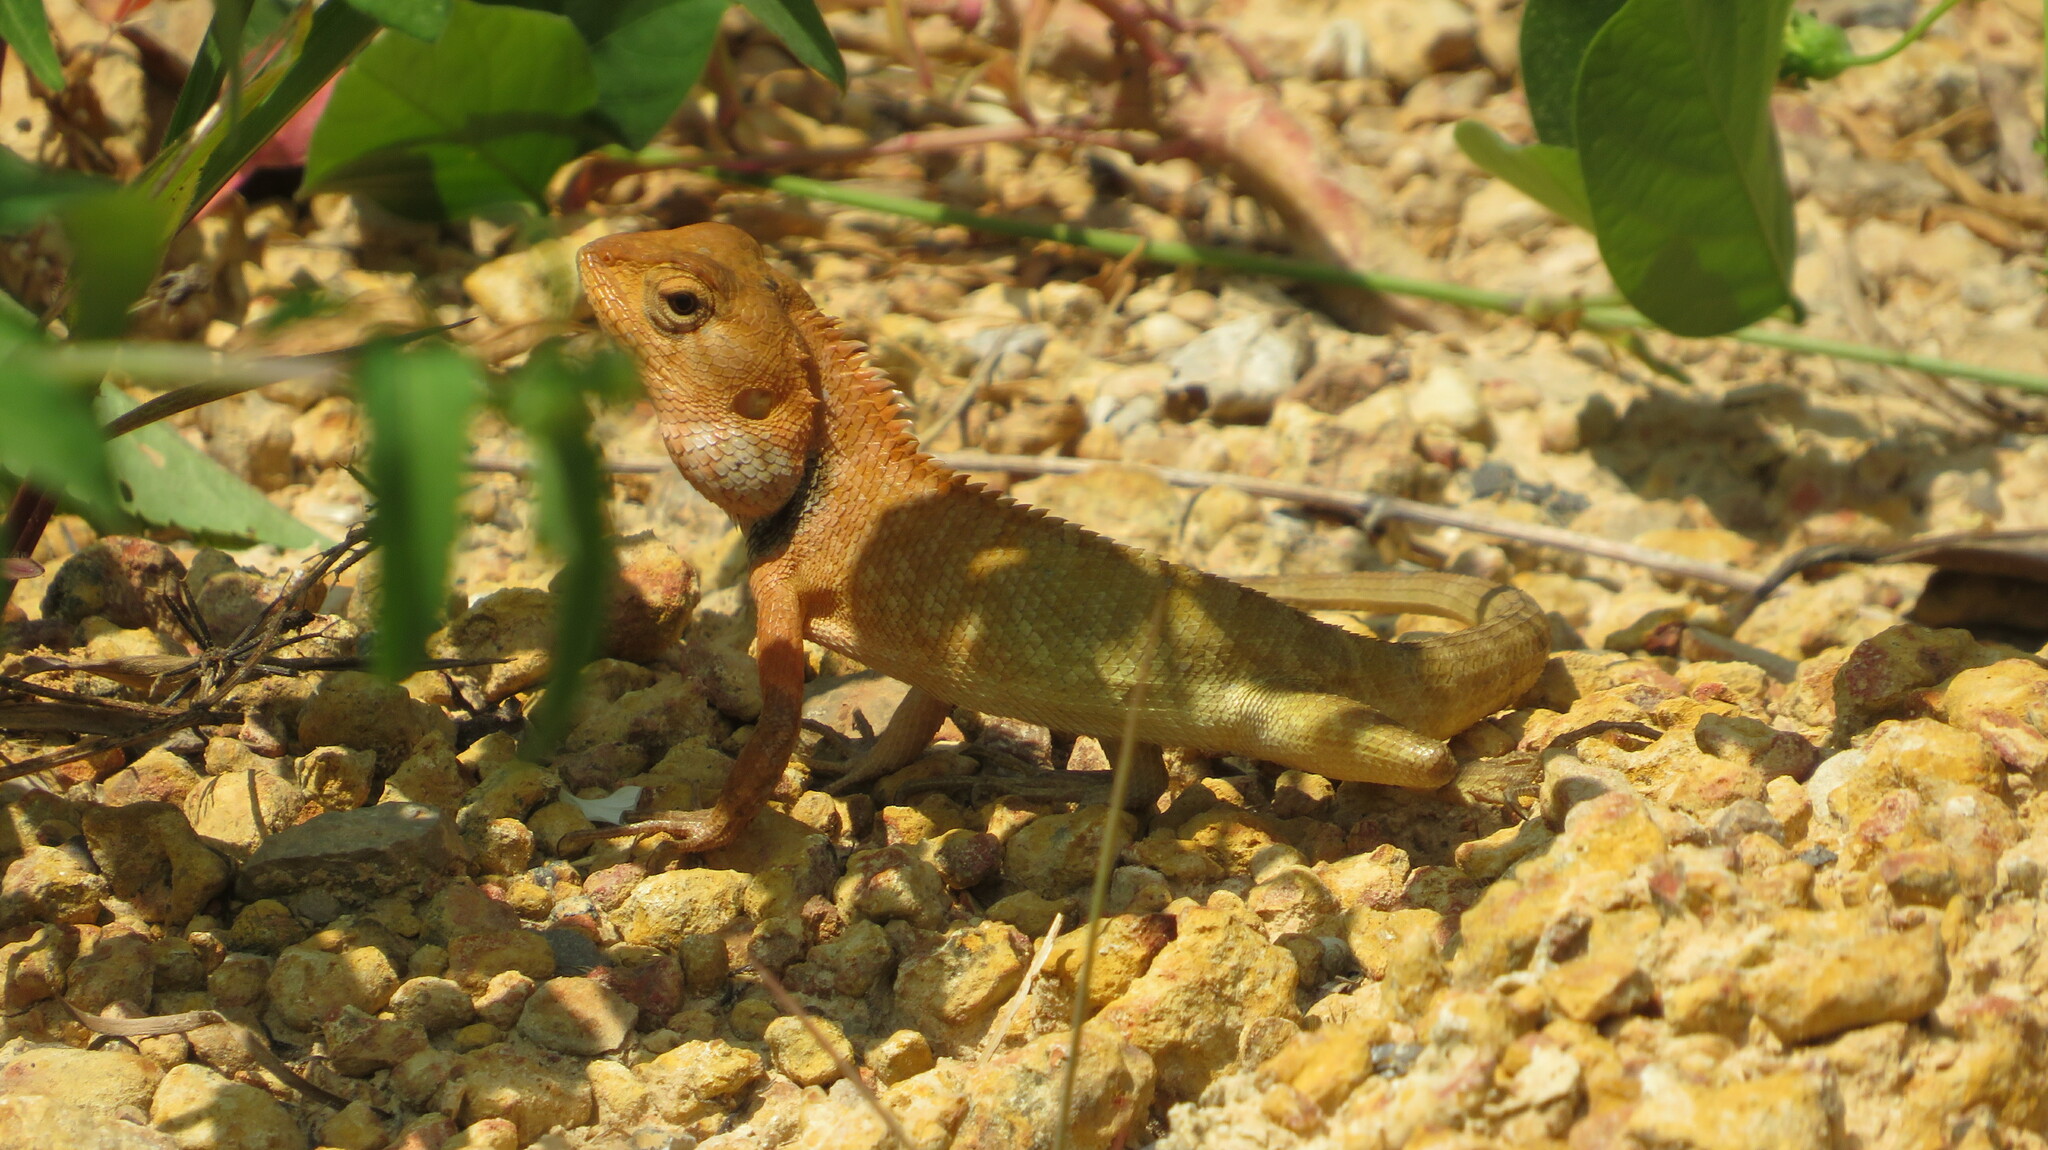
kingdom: Animalia
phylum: Chordata
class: Squamata
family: Agamidae
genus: Calotes
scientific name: Calotes versicolor
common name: Oriental garden lizard
